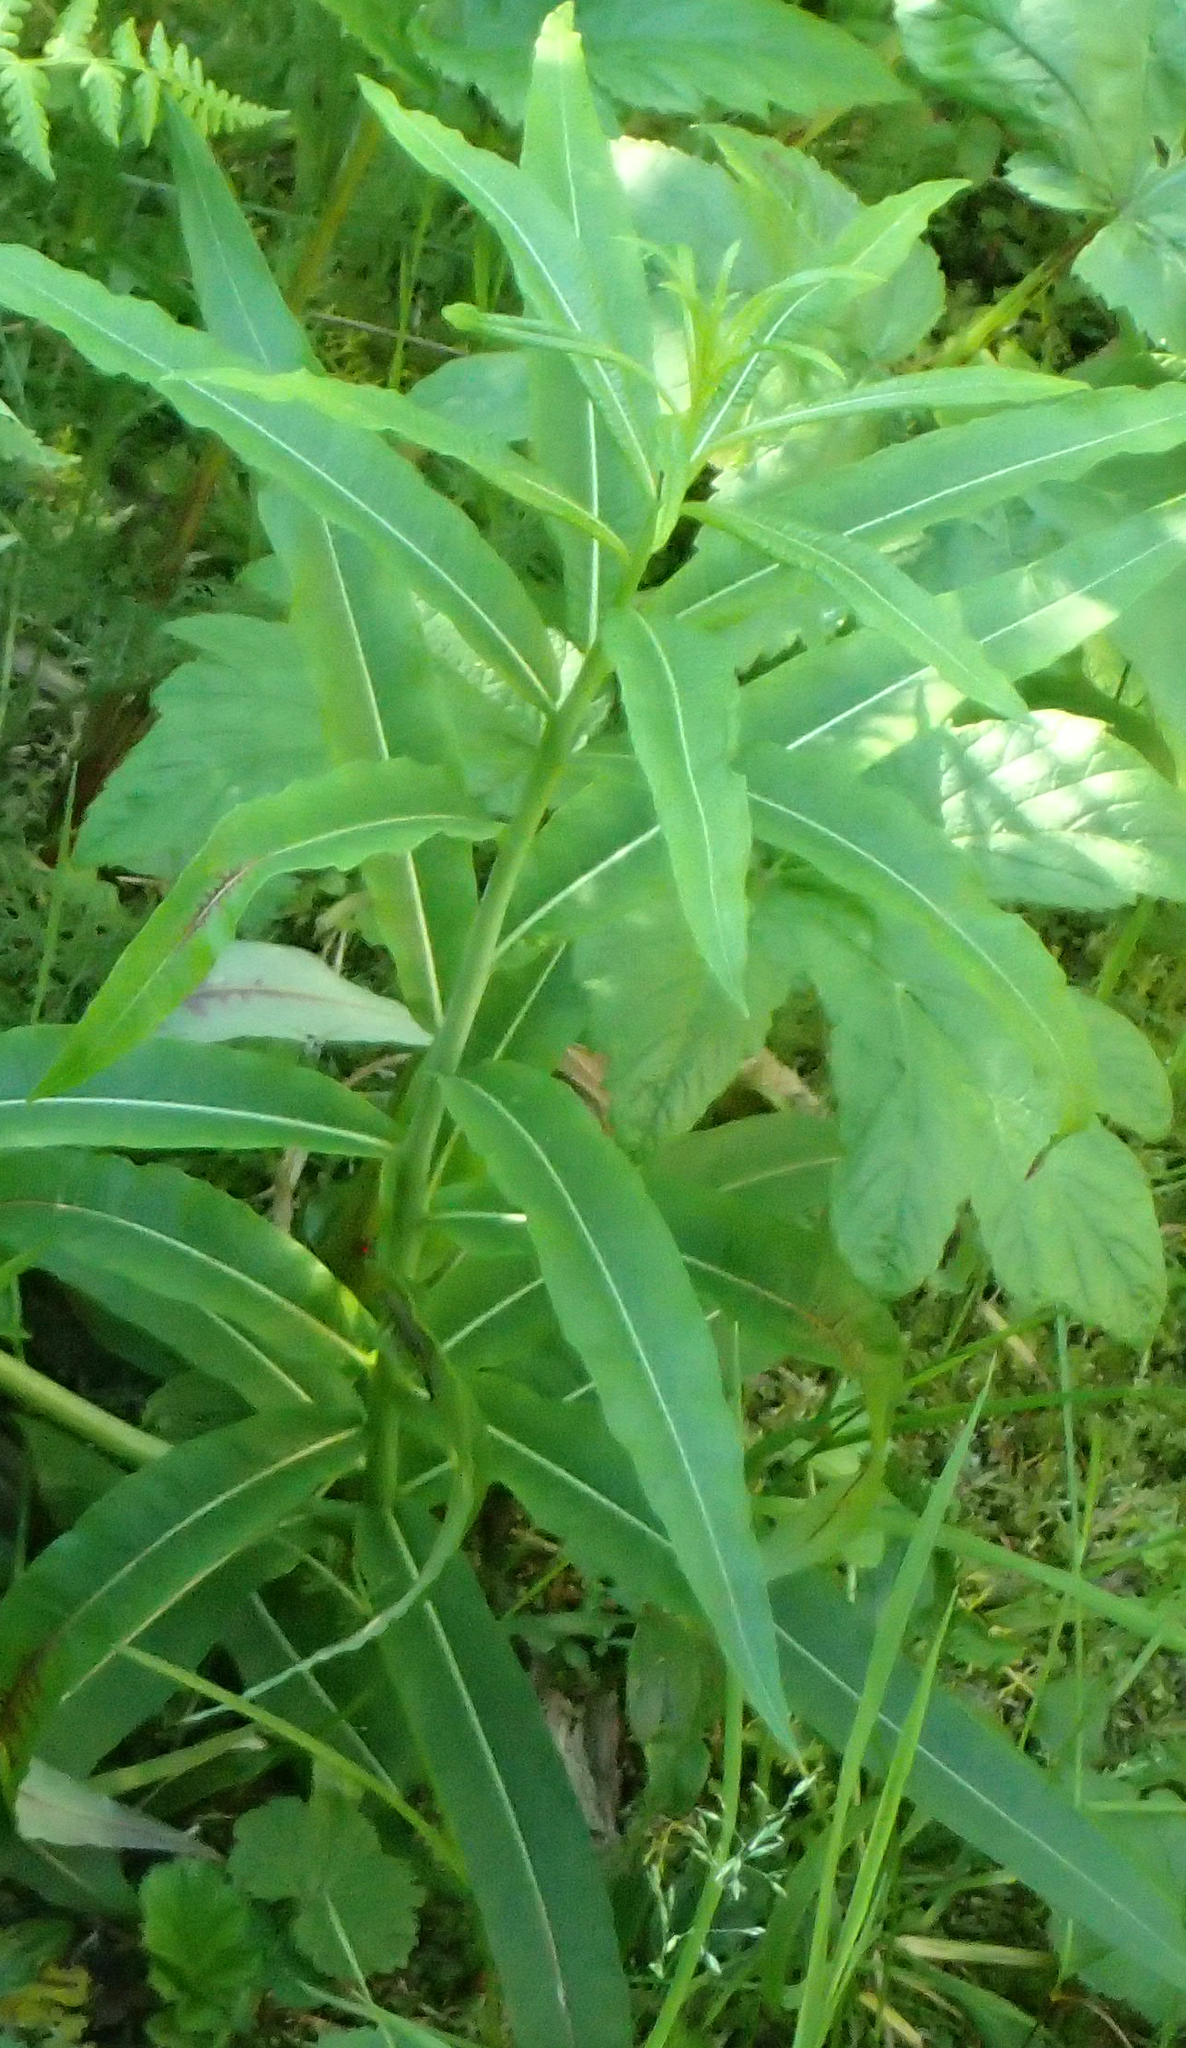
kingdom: Plantae
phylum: Tracheophyta
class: Magnoliopsida
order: Myrtales
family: Onagraceae
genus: Chamaenerion
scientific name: Chamaenerion angustifolium
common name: Fireweed
